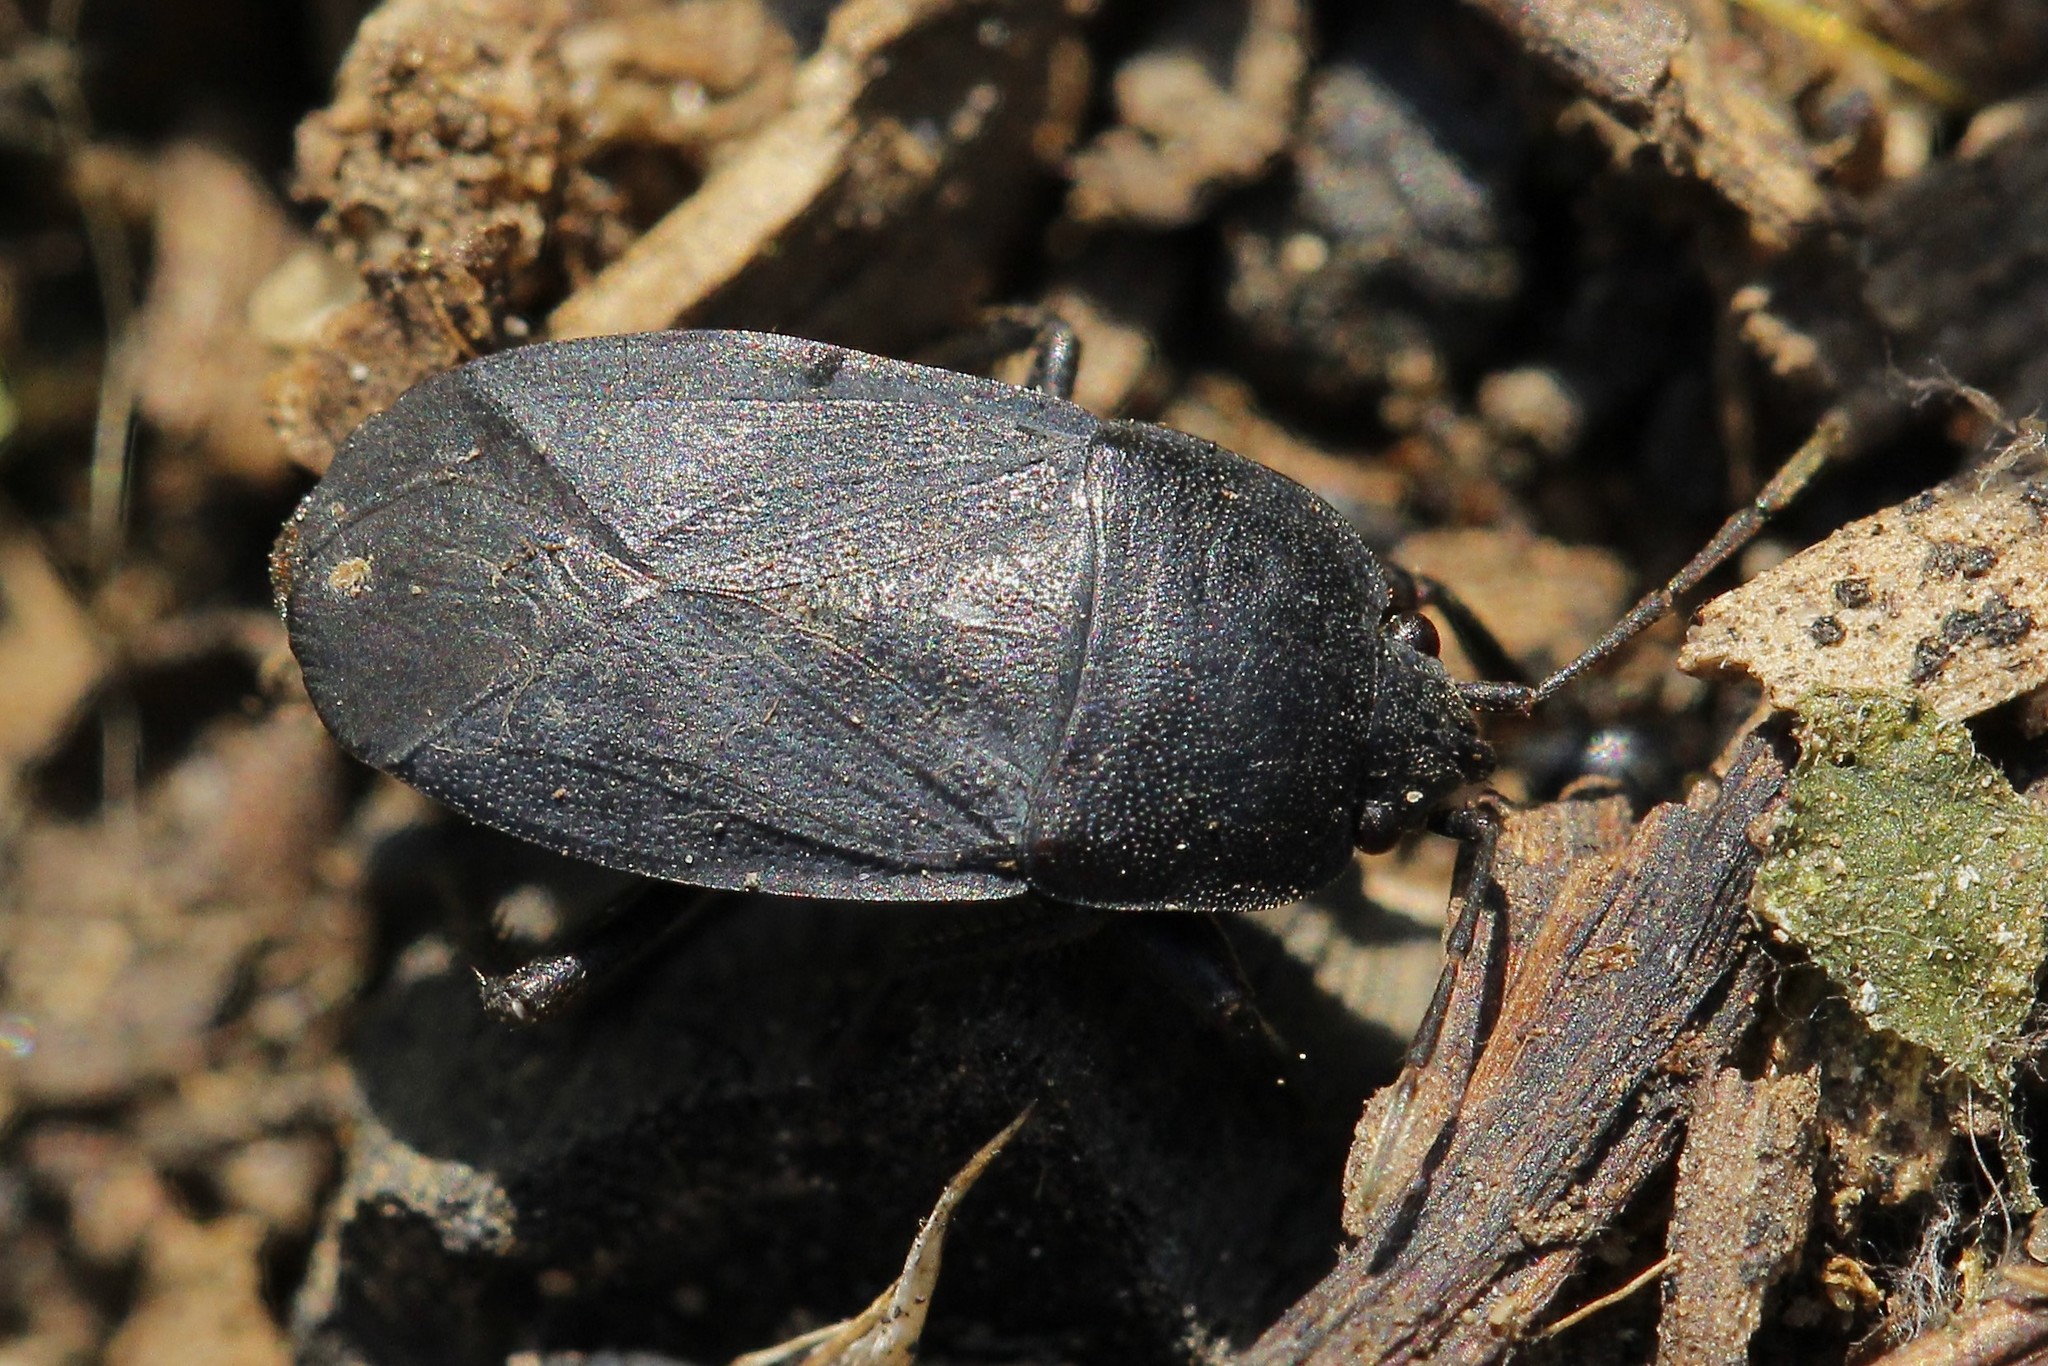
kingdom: Animalia
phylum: Arthropoda
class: Insecta
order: Hemiptera
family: Rhyparochromidae
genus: Aellopus
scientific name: Aellopus atratus
